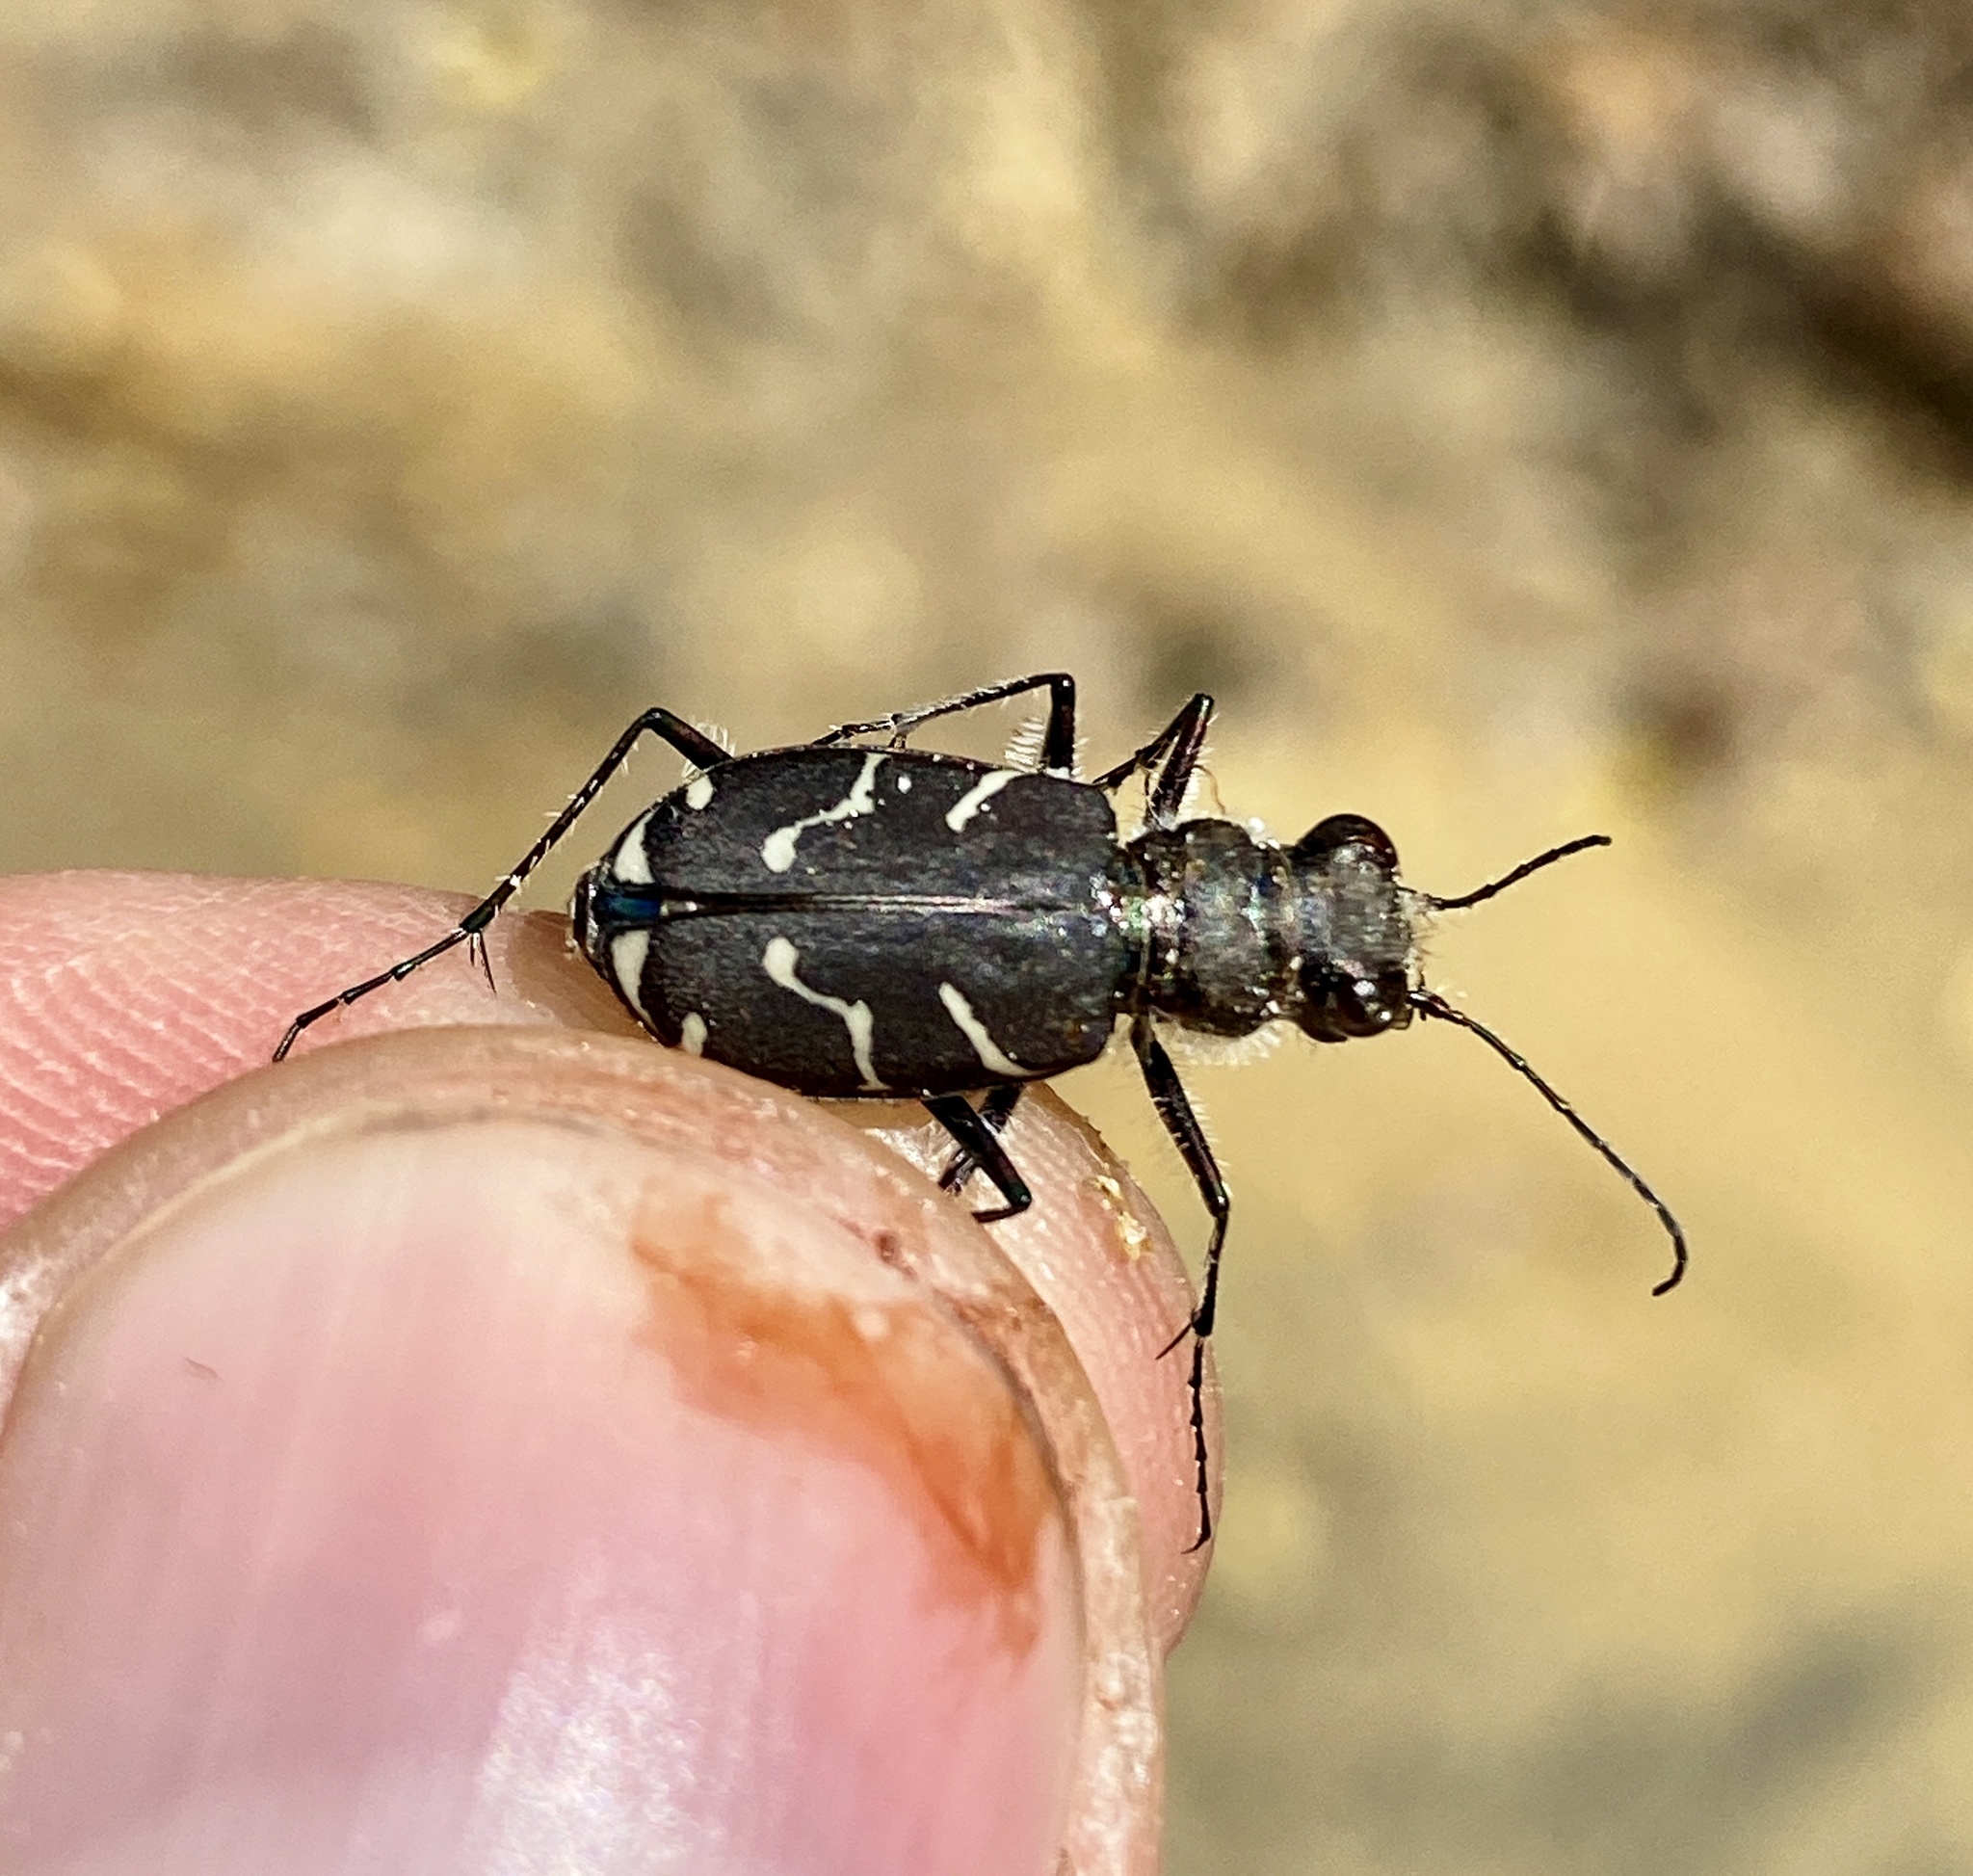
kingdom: Animalia
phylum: Arthropoda
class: Insecta
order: Coleoptera
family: Carabidae
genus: Cicindela
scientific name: Cicindela tranquebarica
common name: Oblique-lined tiger beetle
